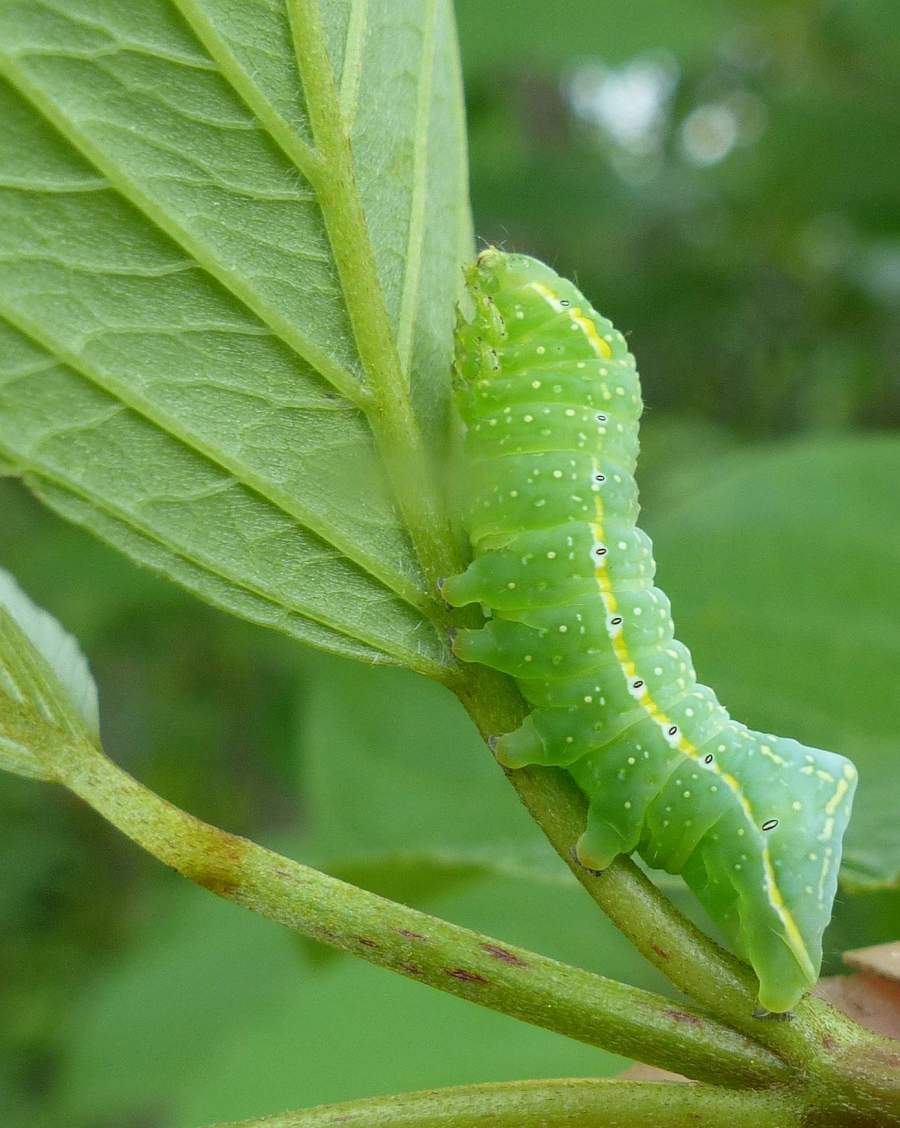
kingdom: Animalia
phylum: Arthropoda
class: Insecta
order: Lepidoptera
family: Noctuidae
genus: Amphipyra
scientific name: Amphipyra pyramidoides
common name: American copper underwing
